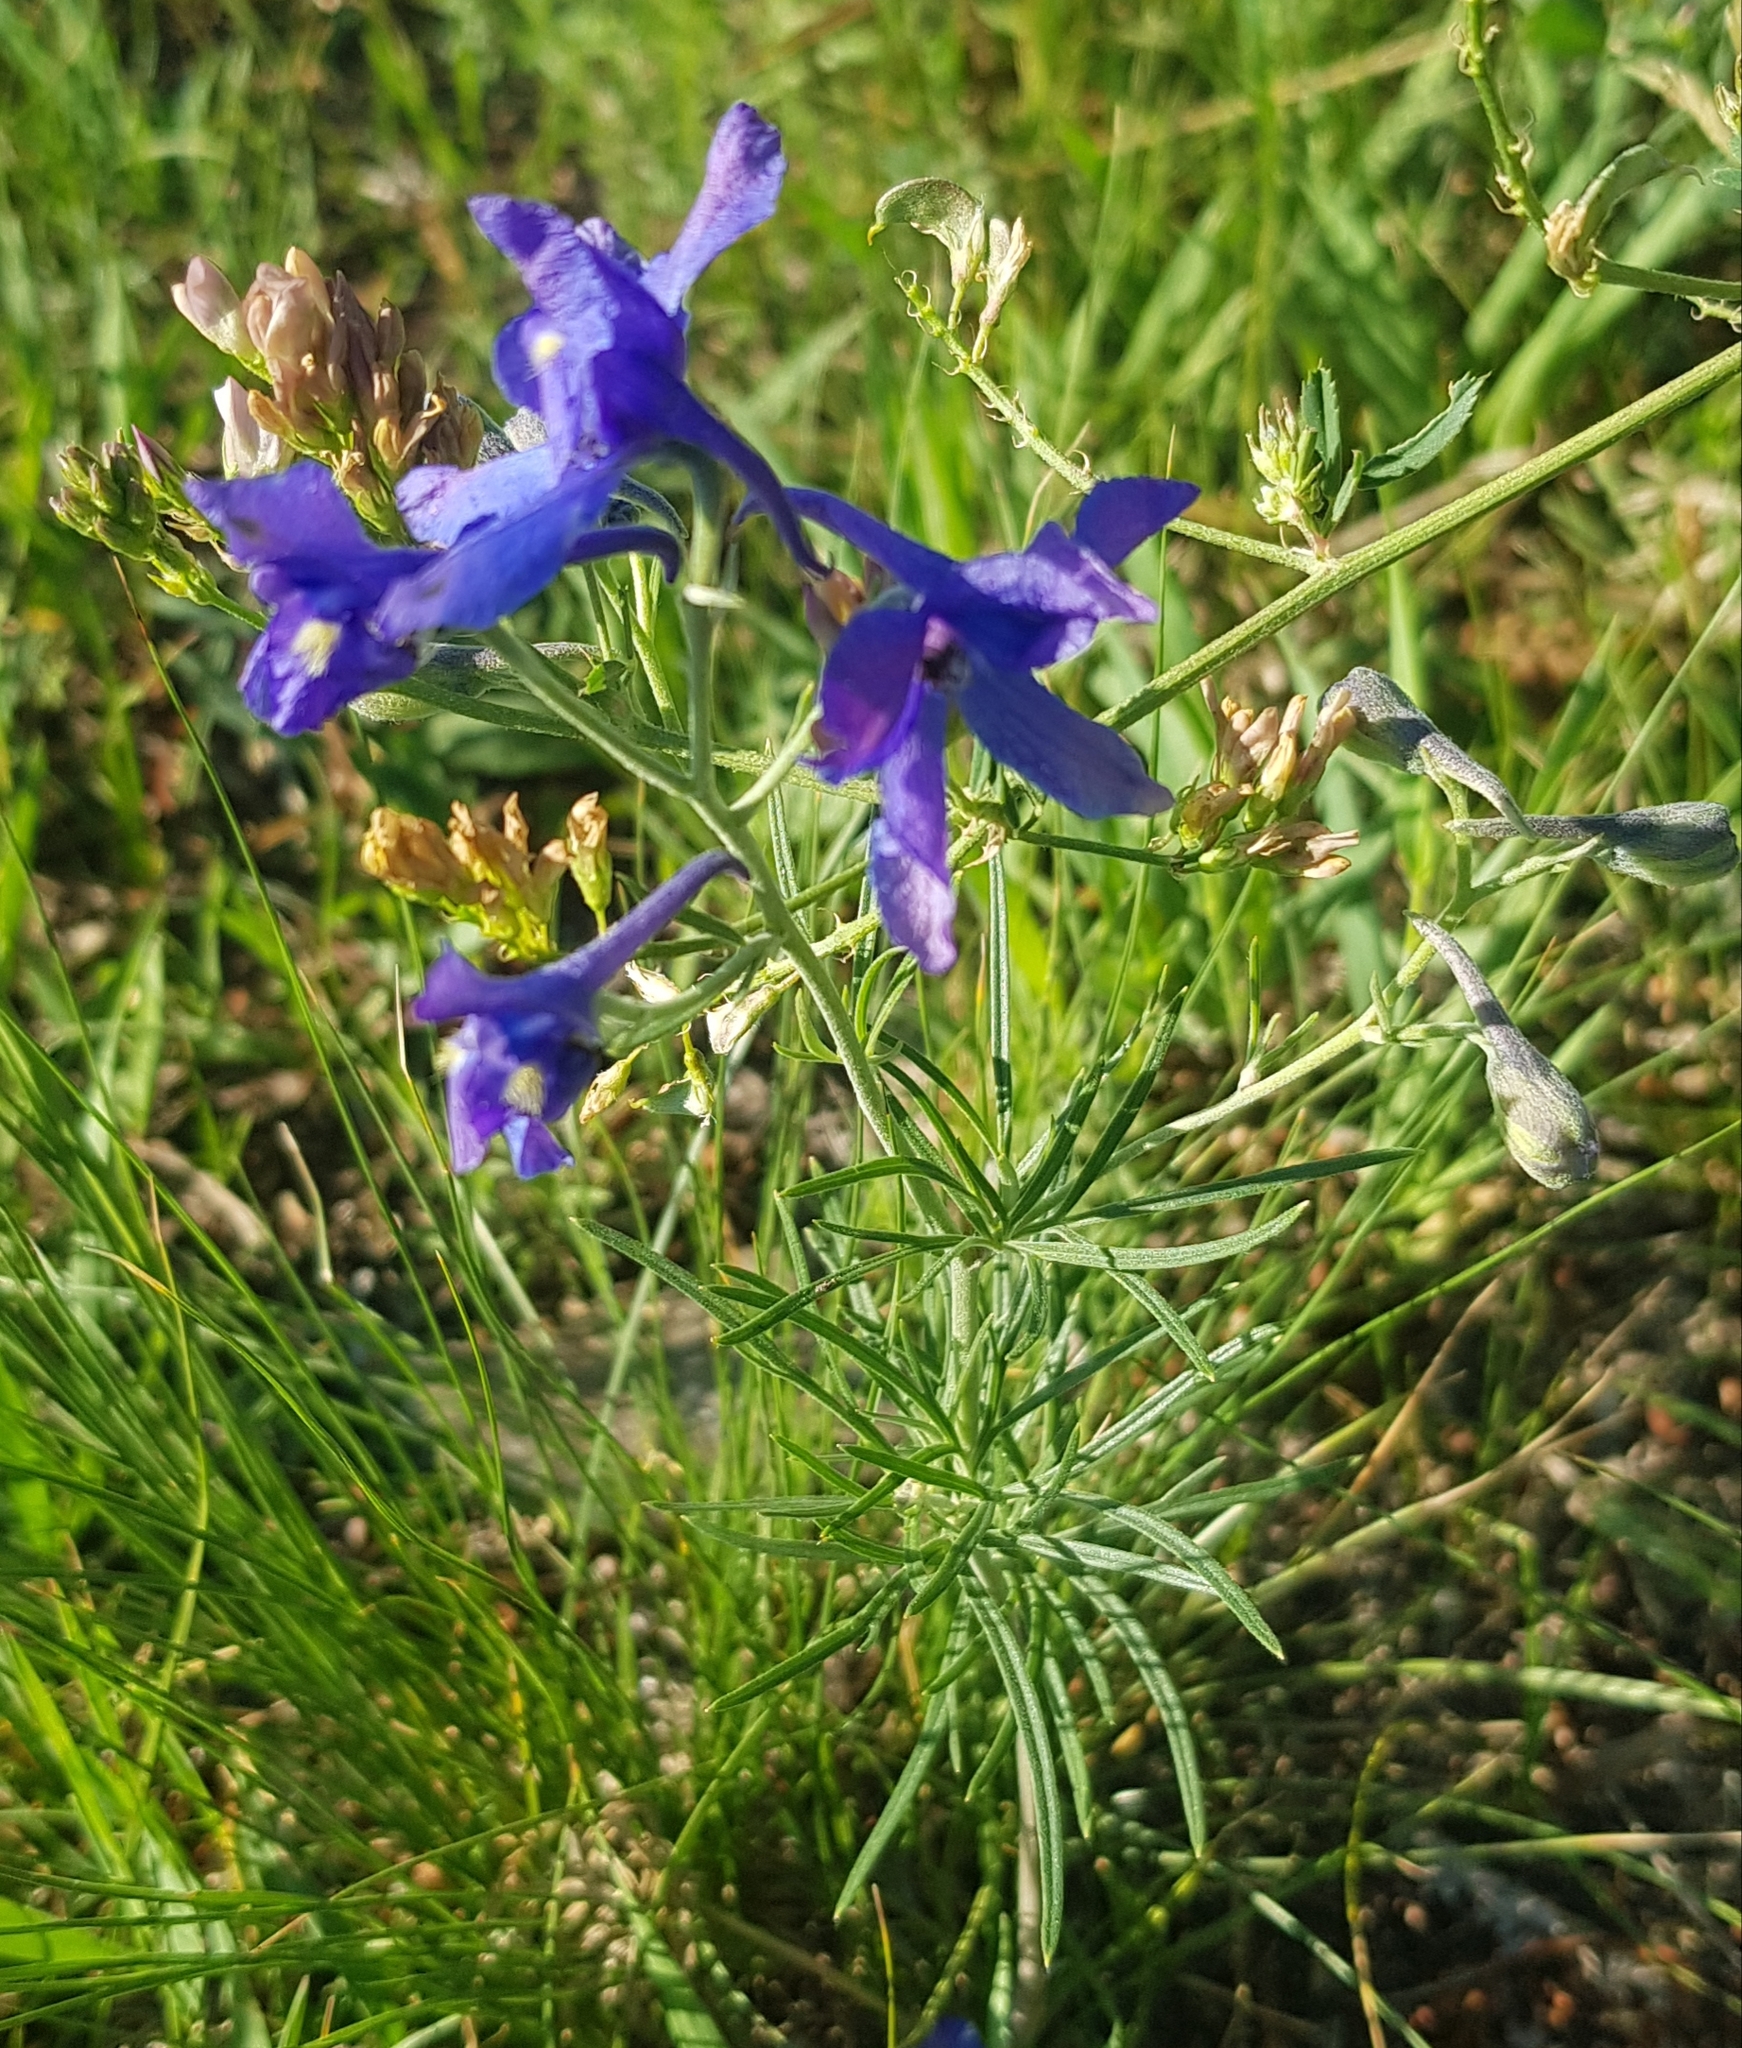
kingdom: Plantae
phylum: Tracheophyta
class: Magnoliopsida
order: Ranunculales
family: Ranunculaceae
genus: Delphinium
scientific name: Delphinium grandiflorum
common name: Siberian larkspur
